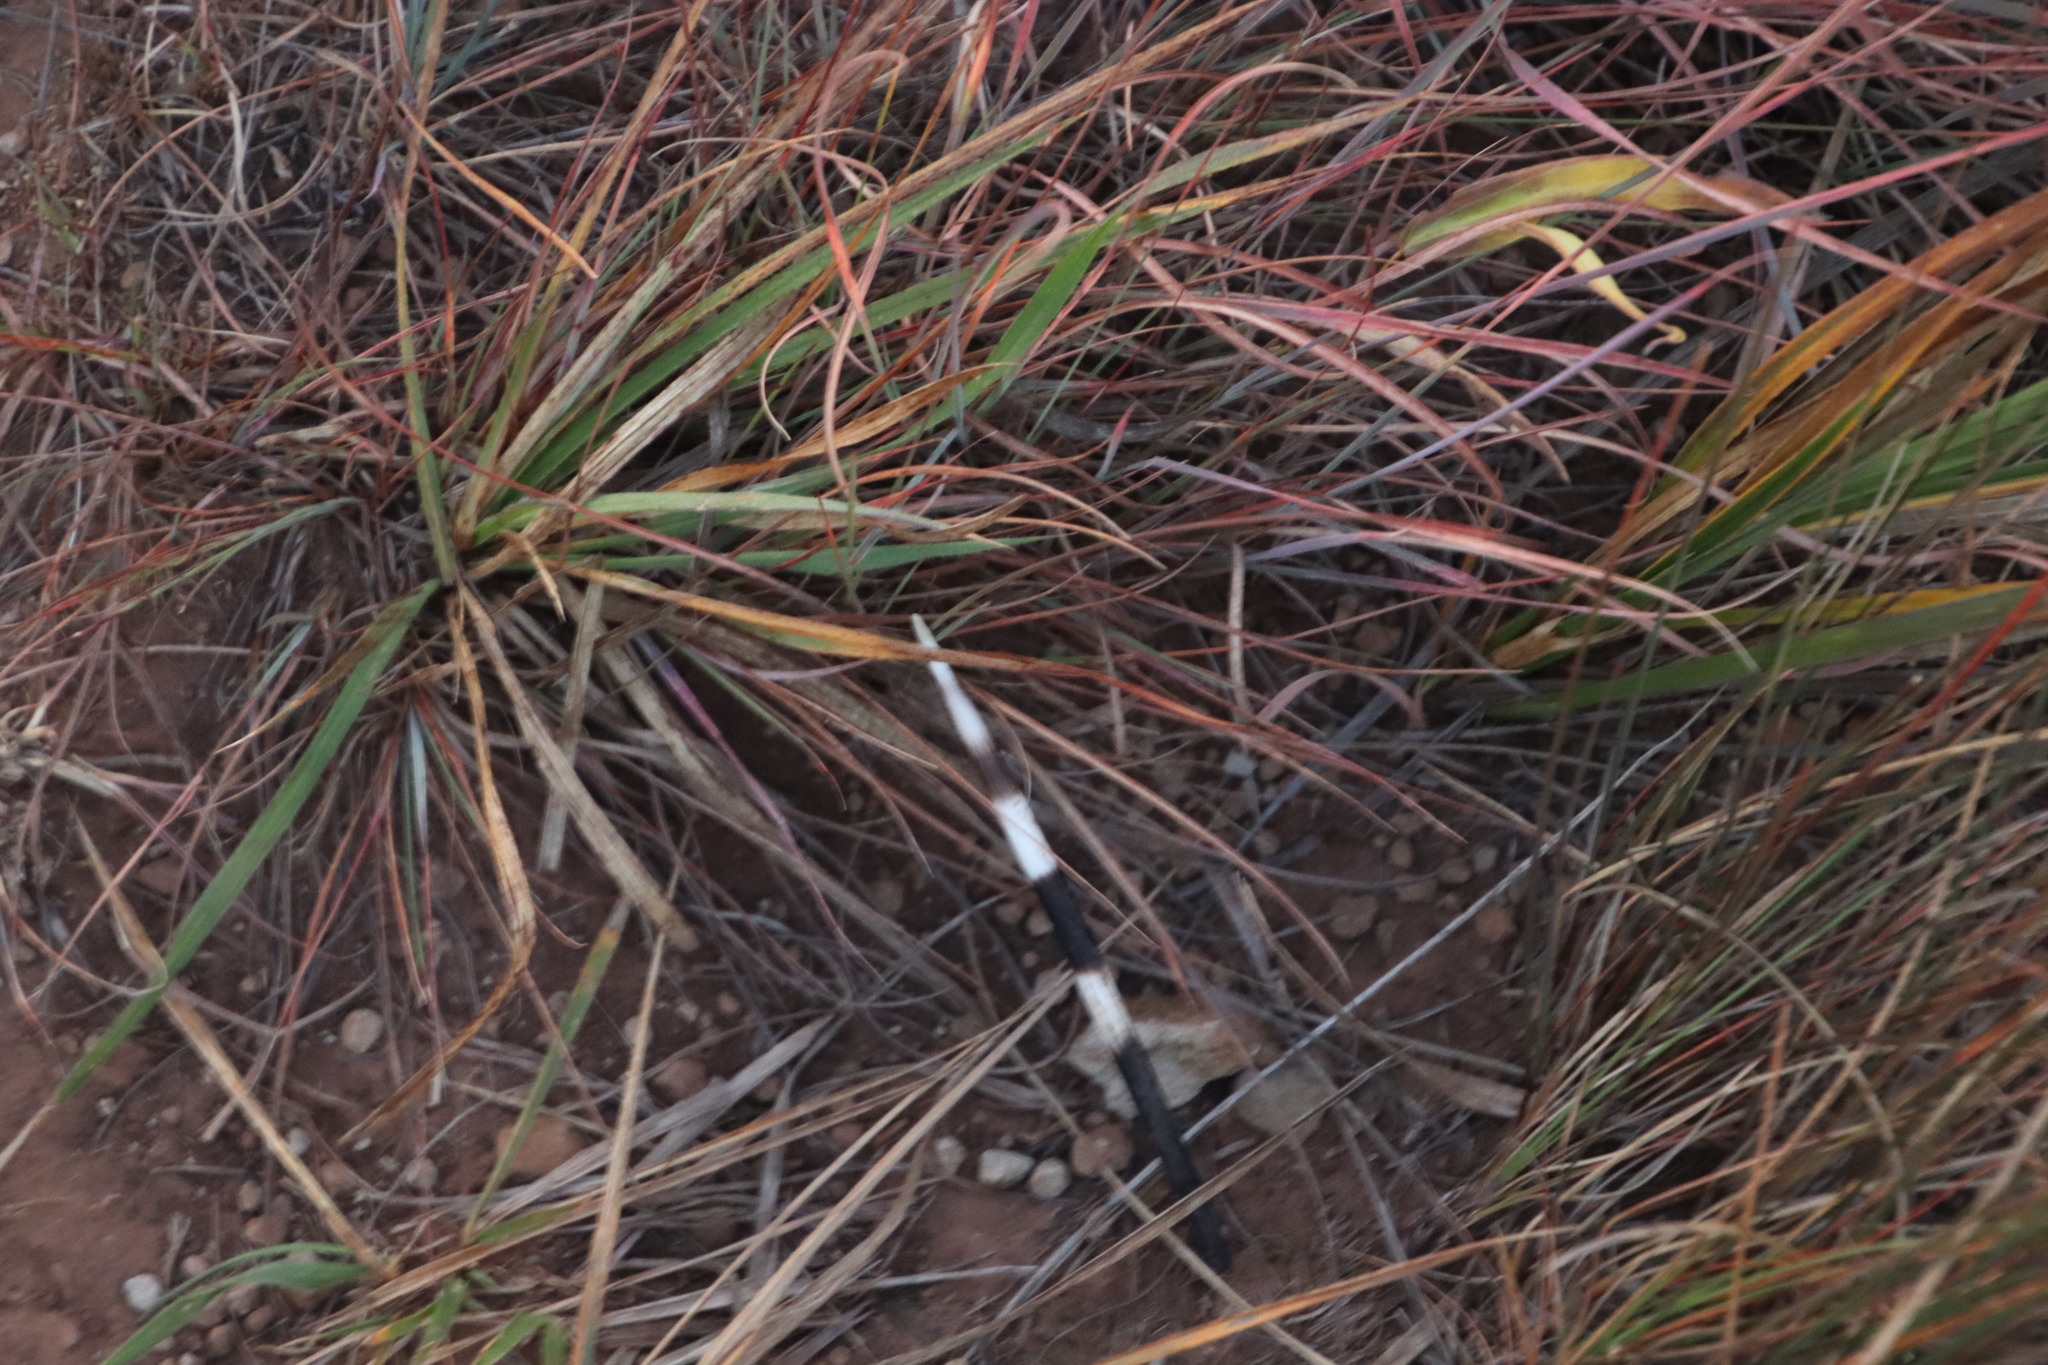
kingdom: Animalia
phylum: Chordata
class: Mammalia
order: Rodentia
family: Hystricidae
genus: Hystrix
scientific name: Hystrix africaeaustralis
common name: Cape porcupine
